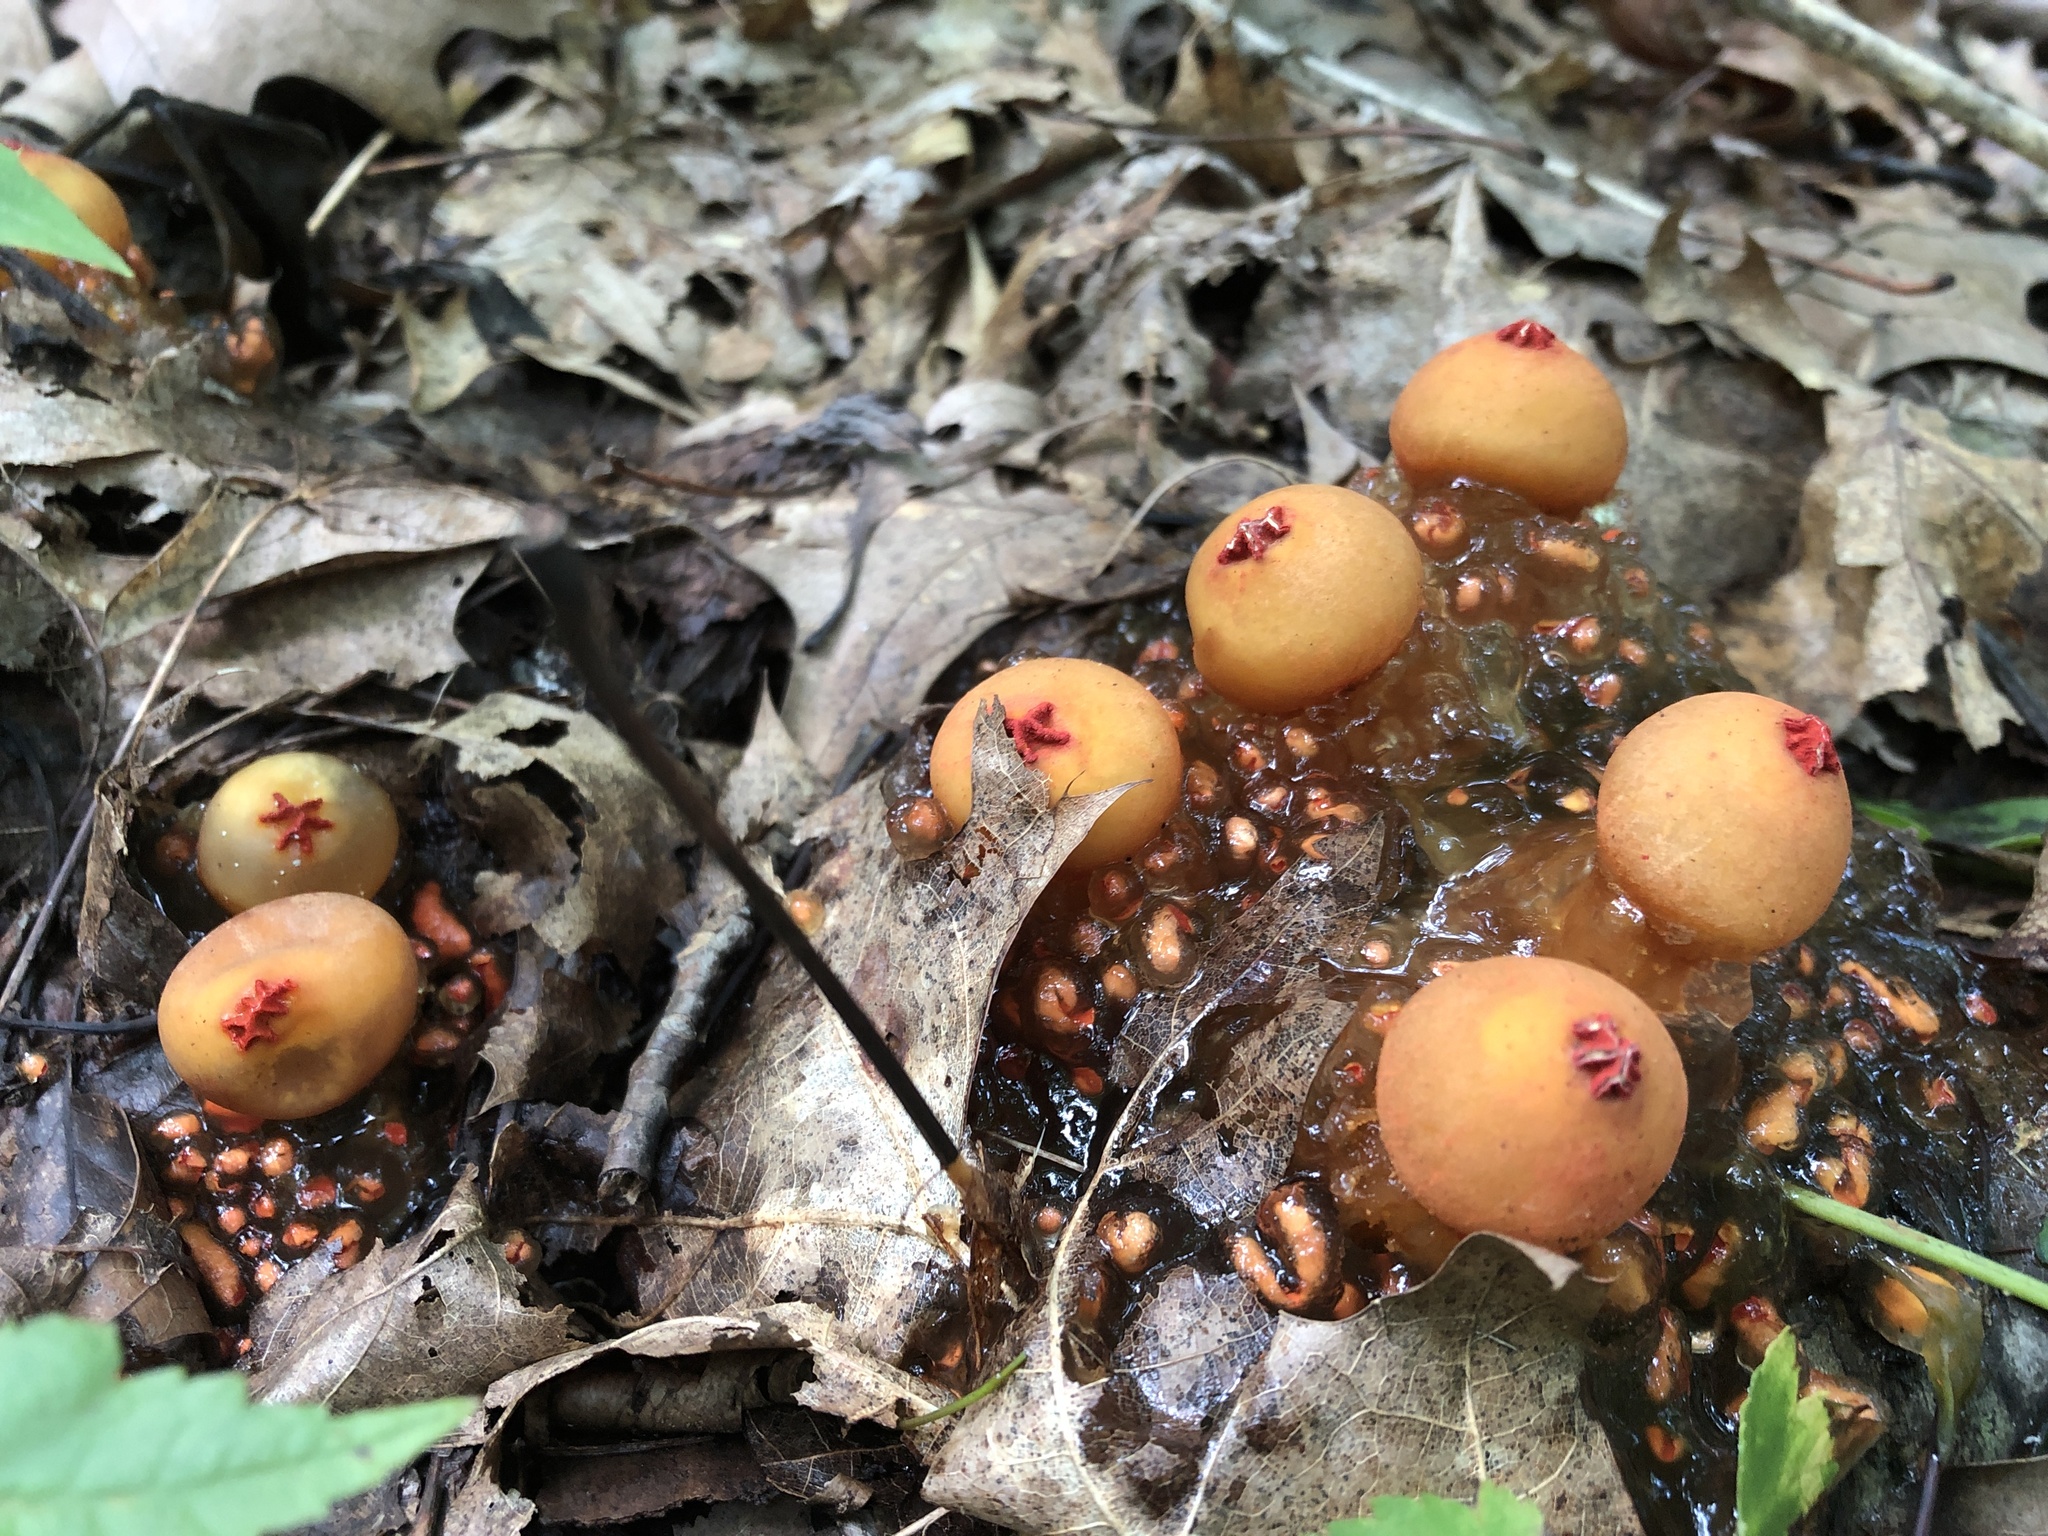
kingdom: Fungi
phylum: Basidiomycota
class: Agaricomycetes
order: Boletales
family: Calostomataceae
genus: Calostoma
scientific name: Calostoma cinnabarinum
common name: Stalked puffball-in-aspic
